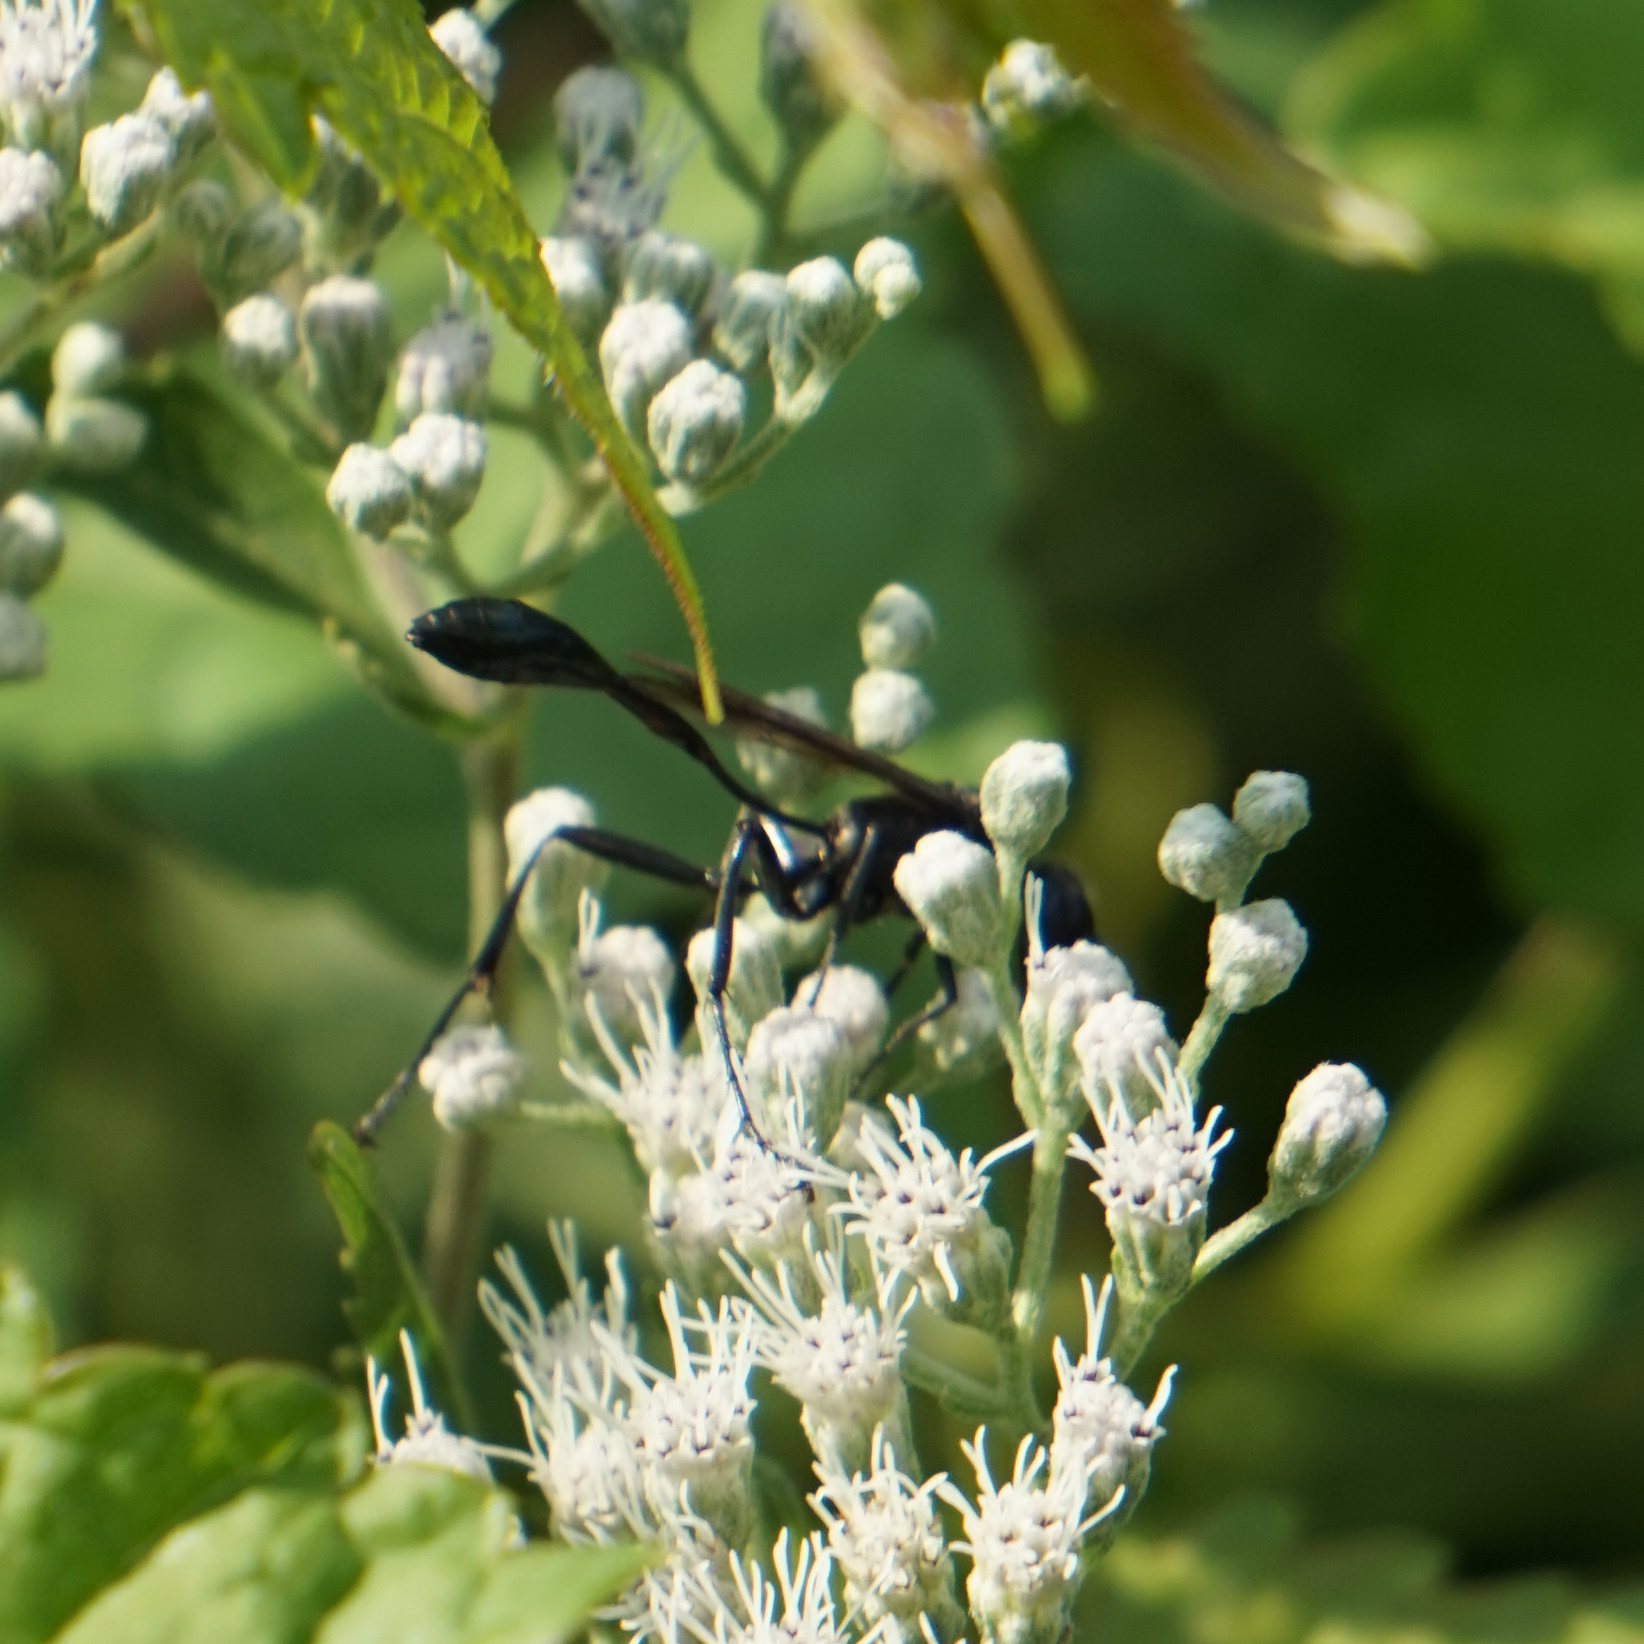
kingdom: Animalia
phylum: Arthropoda
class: Insecta
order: Hymenoptera
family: Sphecidae
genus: Eremnophila
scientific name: Eremnophila aureonotata
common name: Gold-marked thread-waisted wasp
